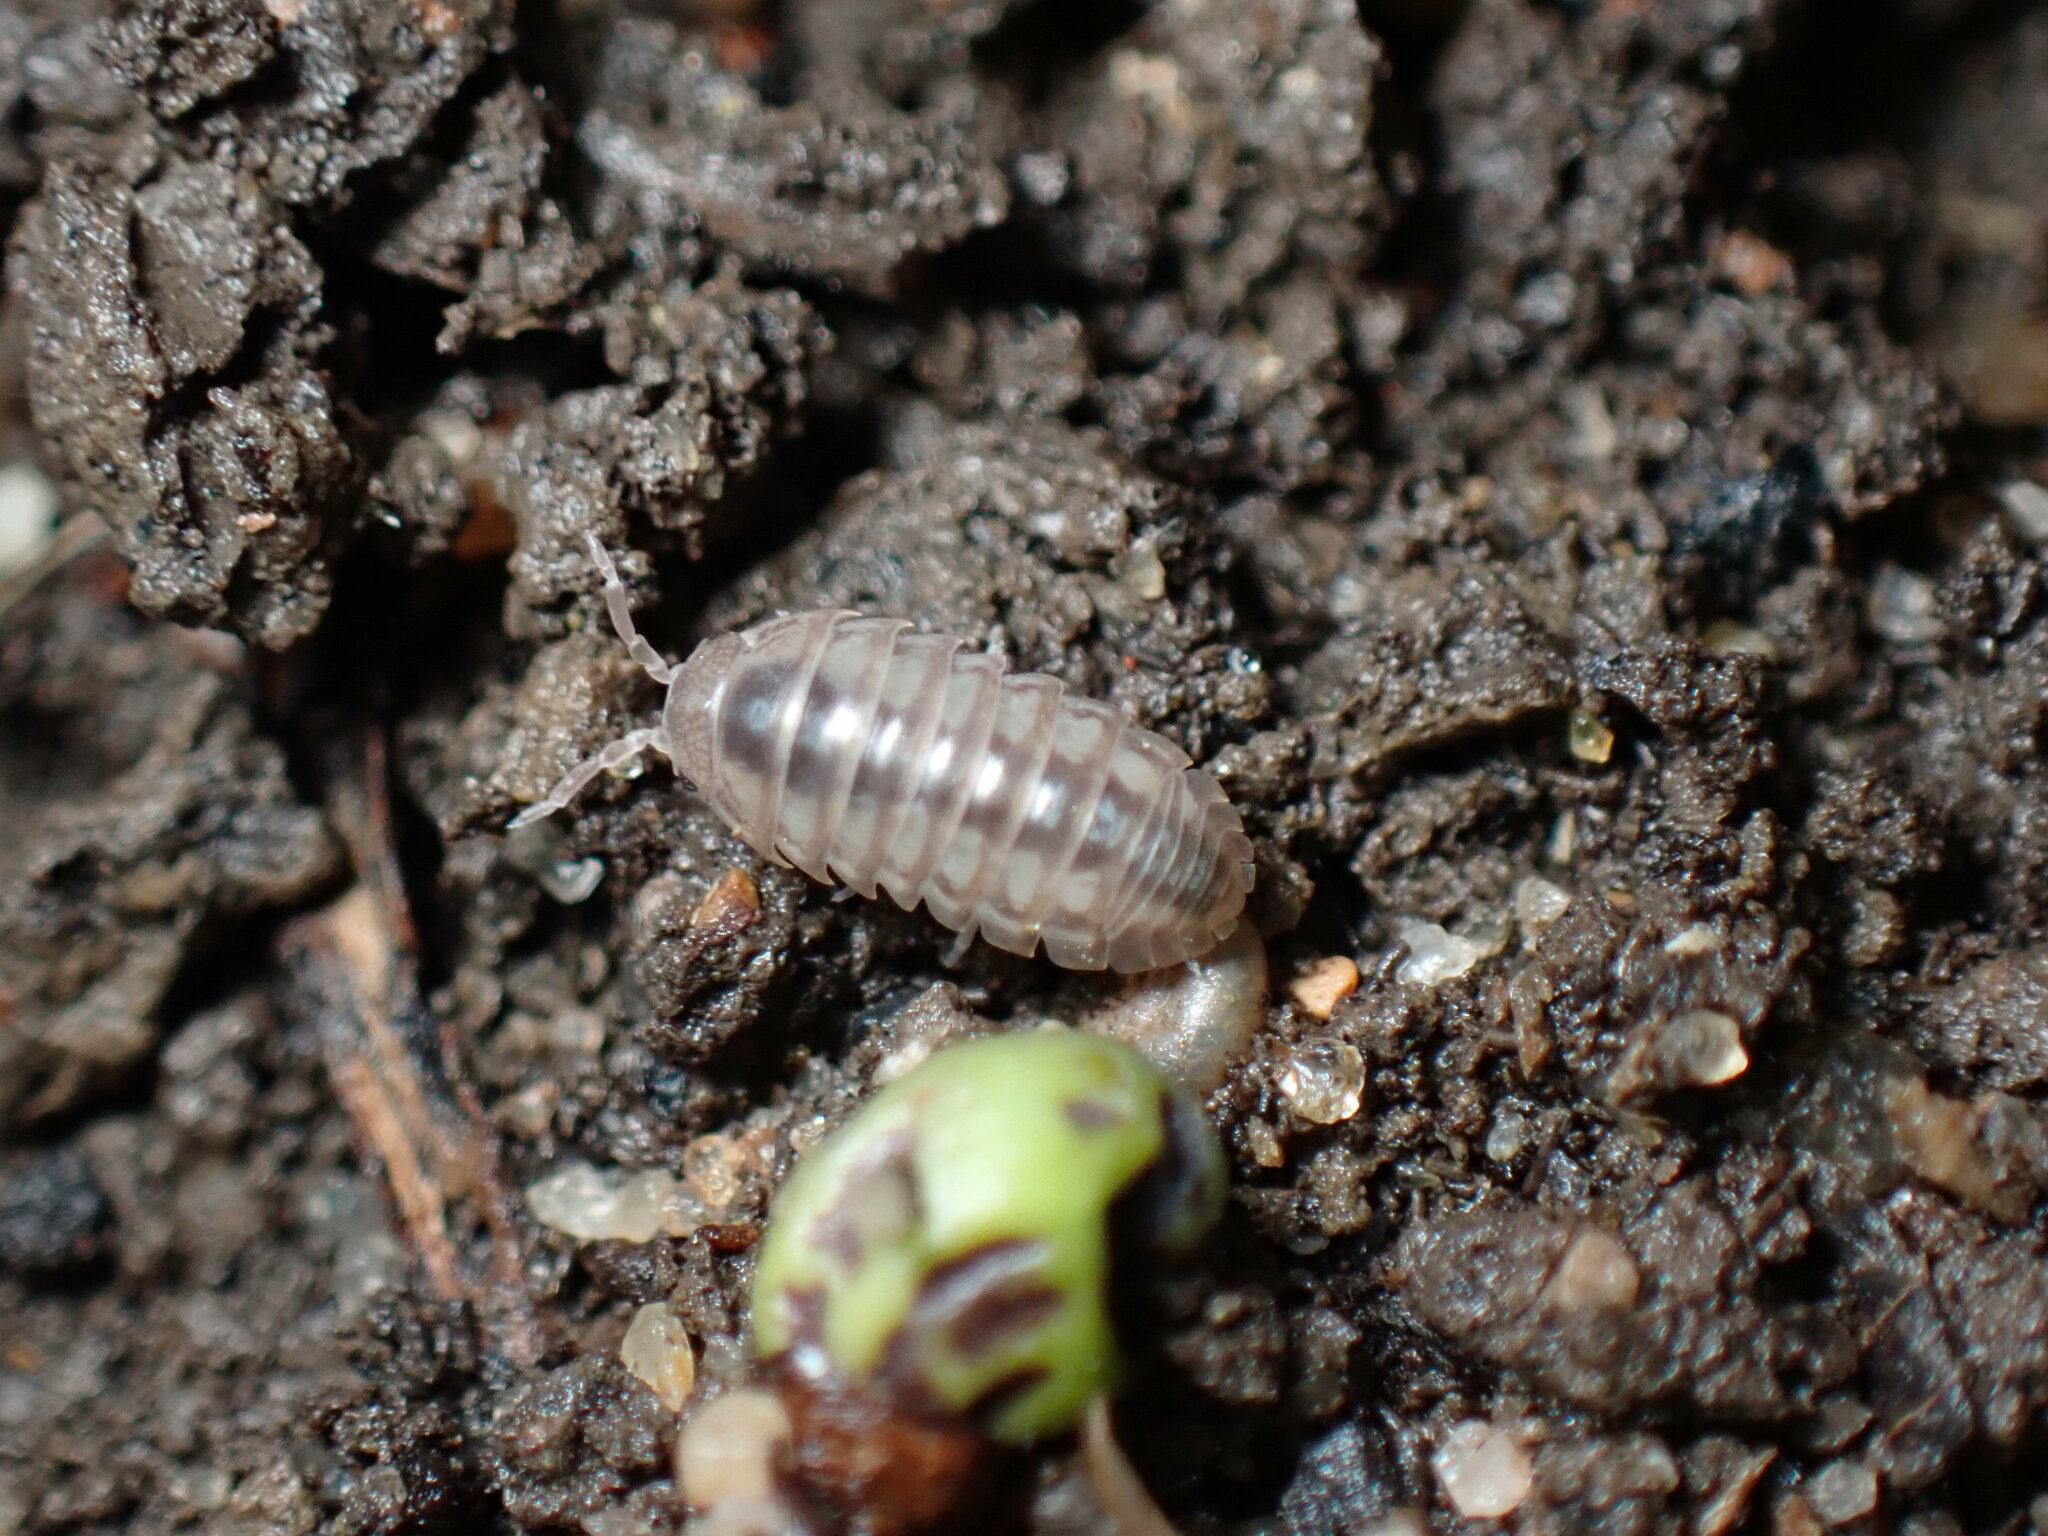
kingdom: Animalia
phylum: Arthropoda
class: Malacostraca
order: Isopoda
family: Armadillidiidae
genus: Armadillidium
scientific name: Armadillidium vulgare
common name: Common pill woodlouse
